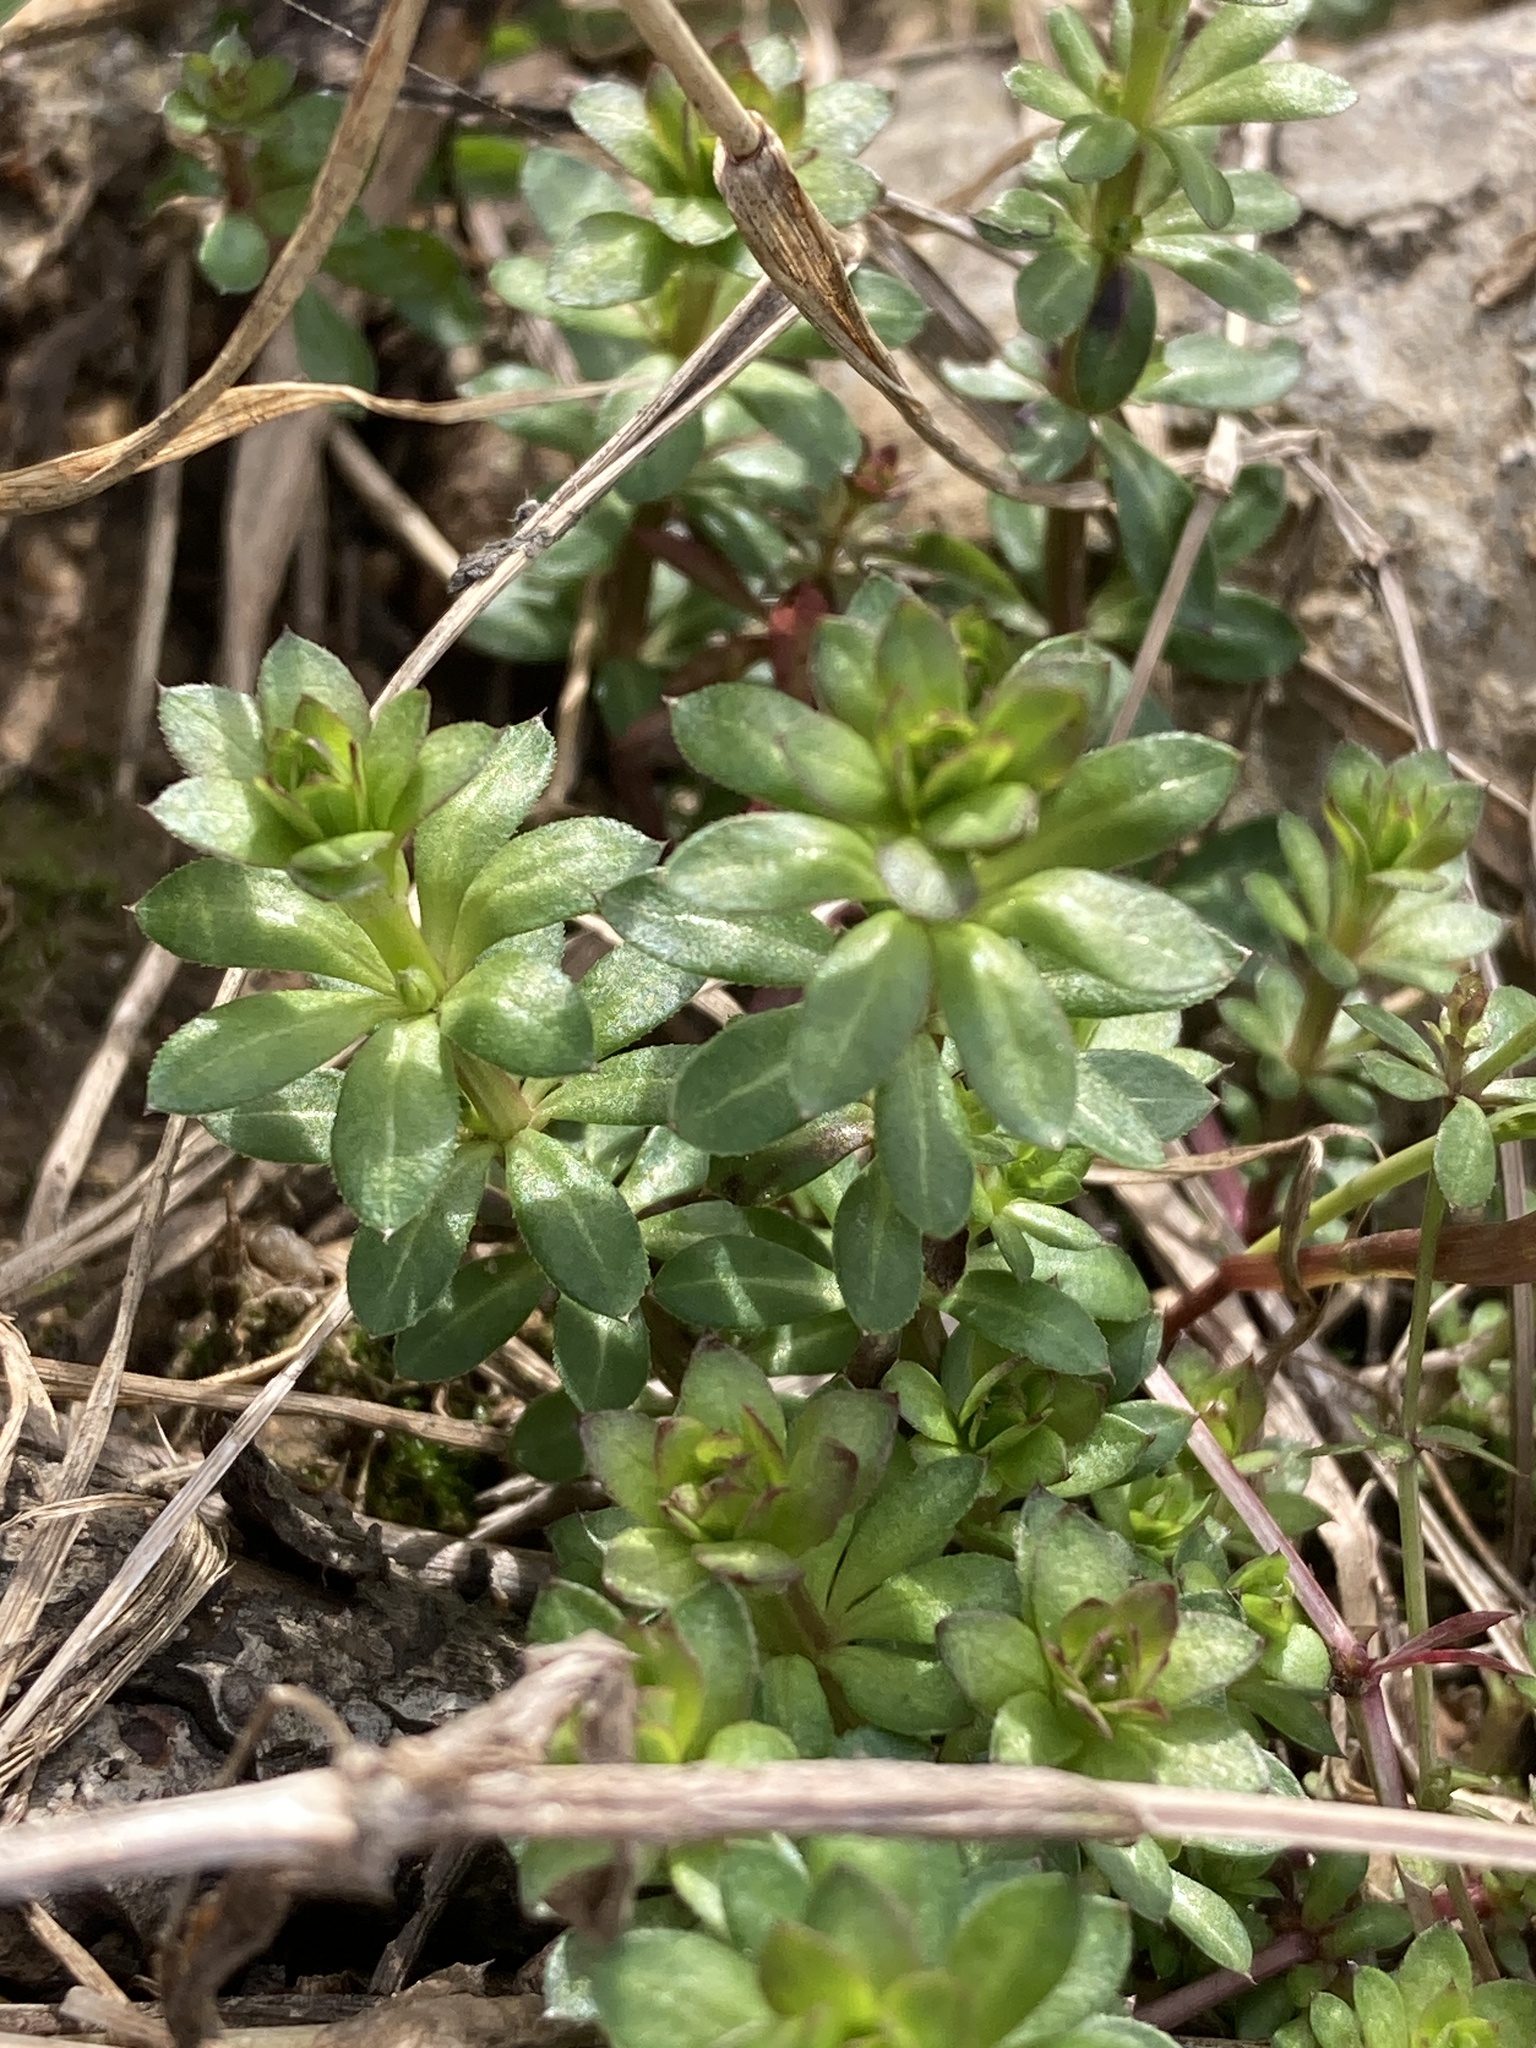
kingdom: Plantae
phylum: Tracheophyta
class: Magnoliopsida
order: Gentianales
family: Rubiaceae
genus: Galium
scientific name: Galium mollugo
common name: Hedge bedstraw
